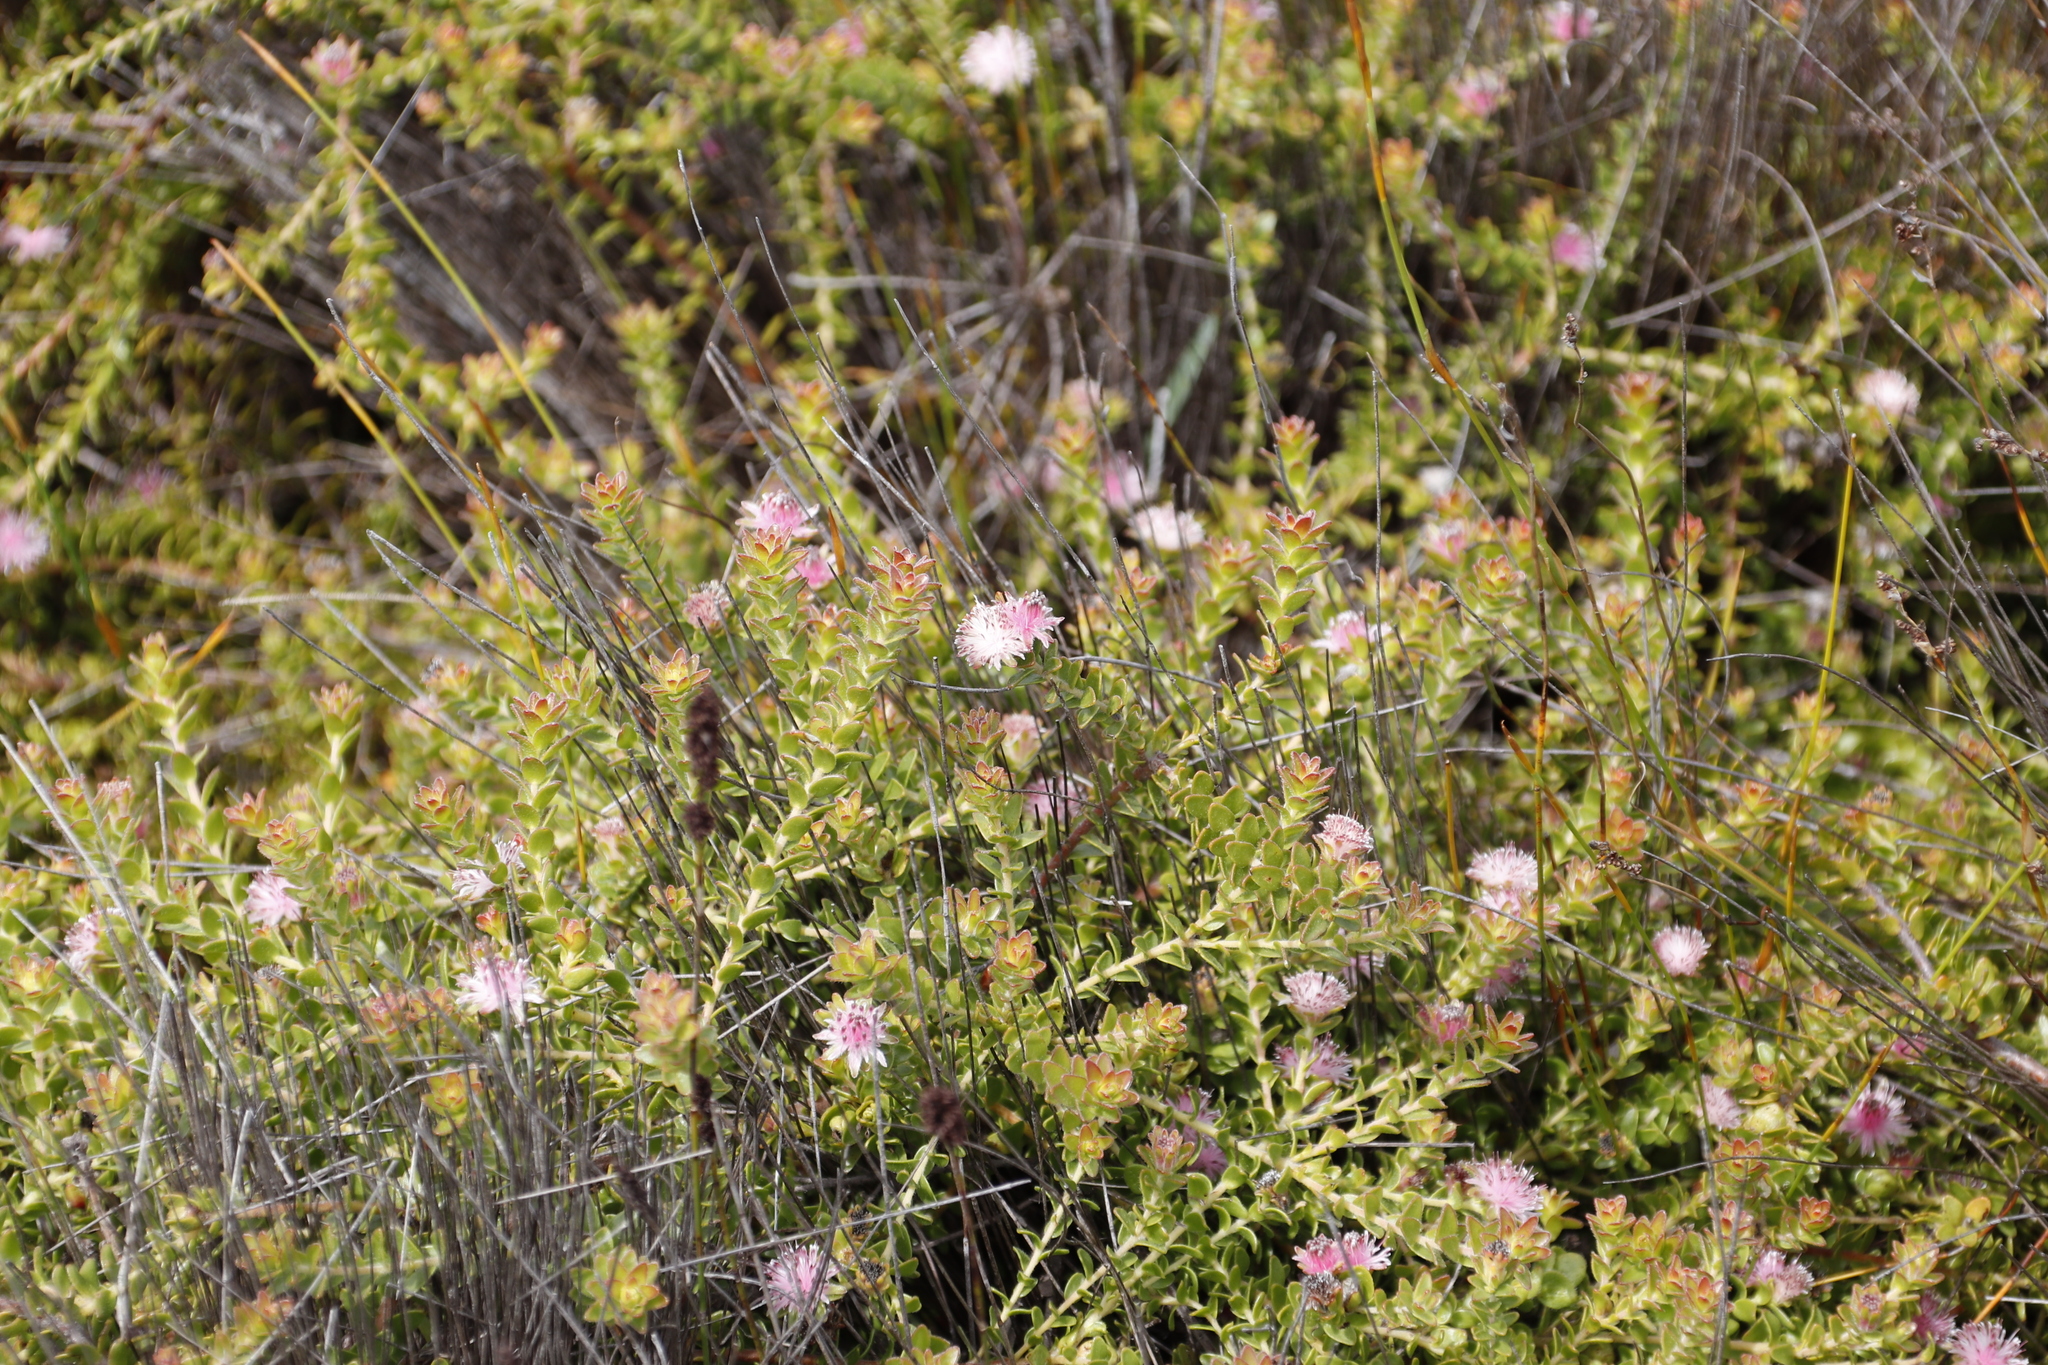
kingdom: Plantae
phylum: Tracheophyta
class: Magnoliopsida
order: Proteales
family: Proteaceae
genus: Diastella
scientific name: Diastella divaricata
